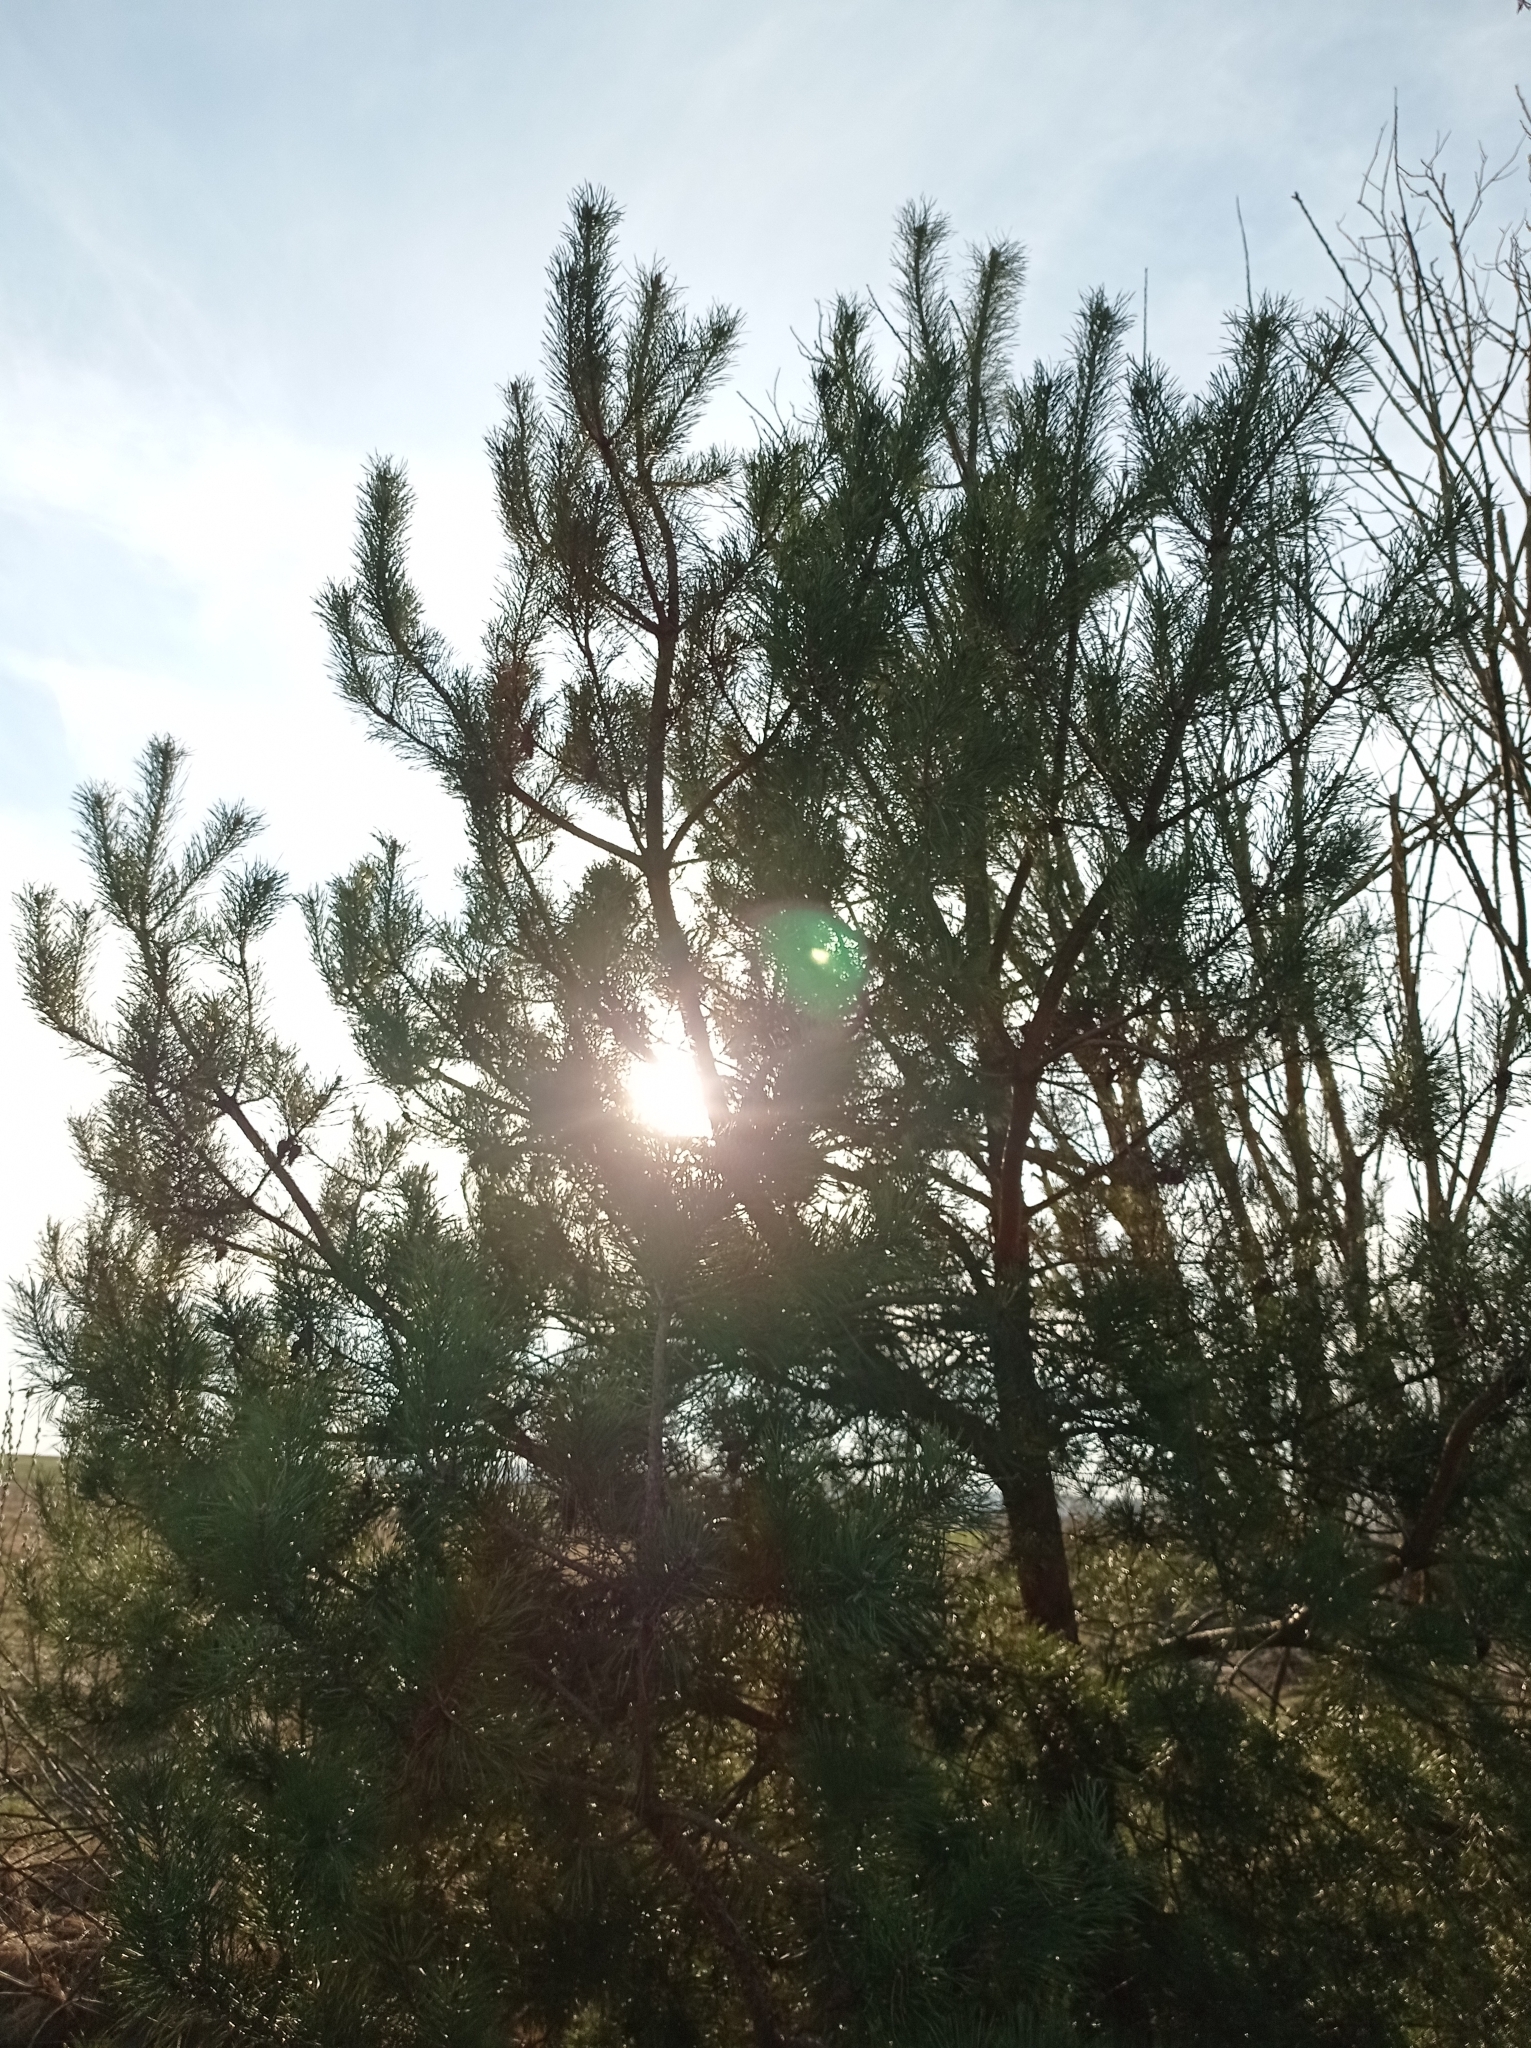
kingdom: Plantae
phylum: Tracheophyta
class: Pinopsida
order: Pinales
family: Pinaceae
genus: Pinus
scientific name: Pinus sylvestris
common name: Scots pine
